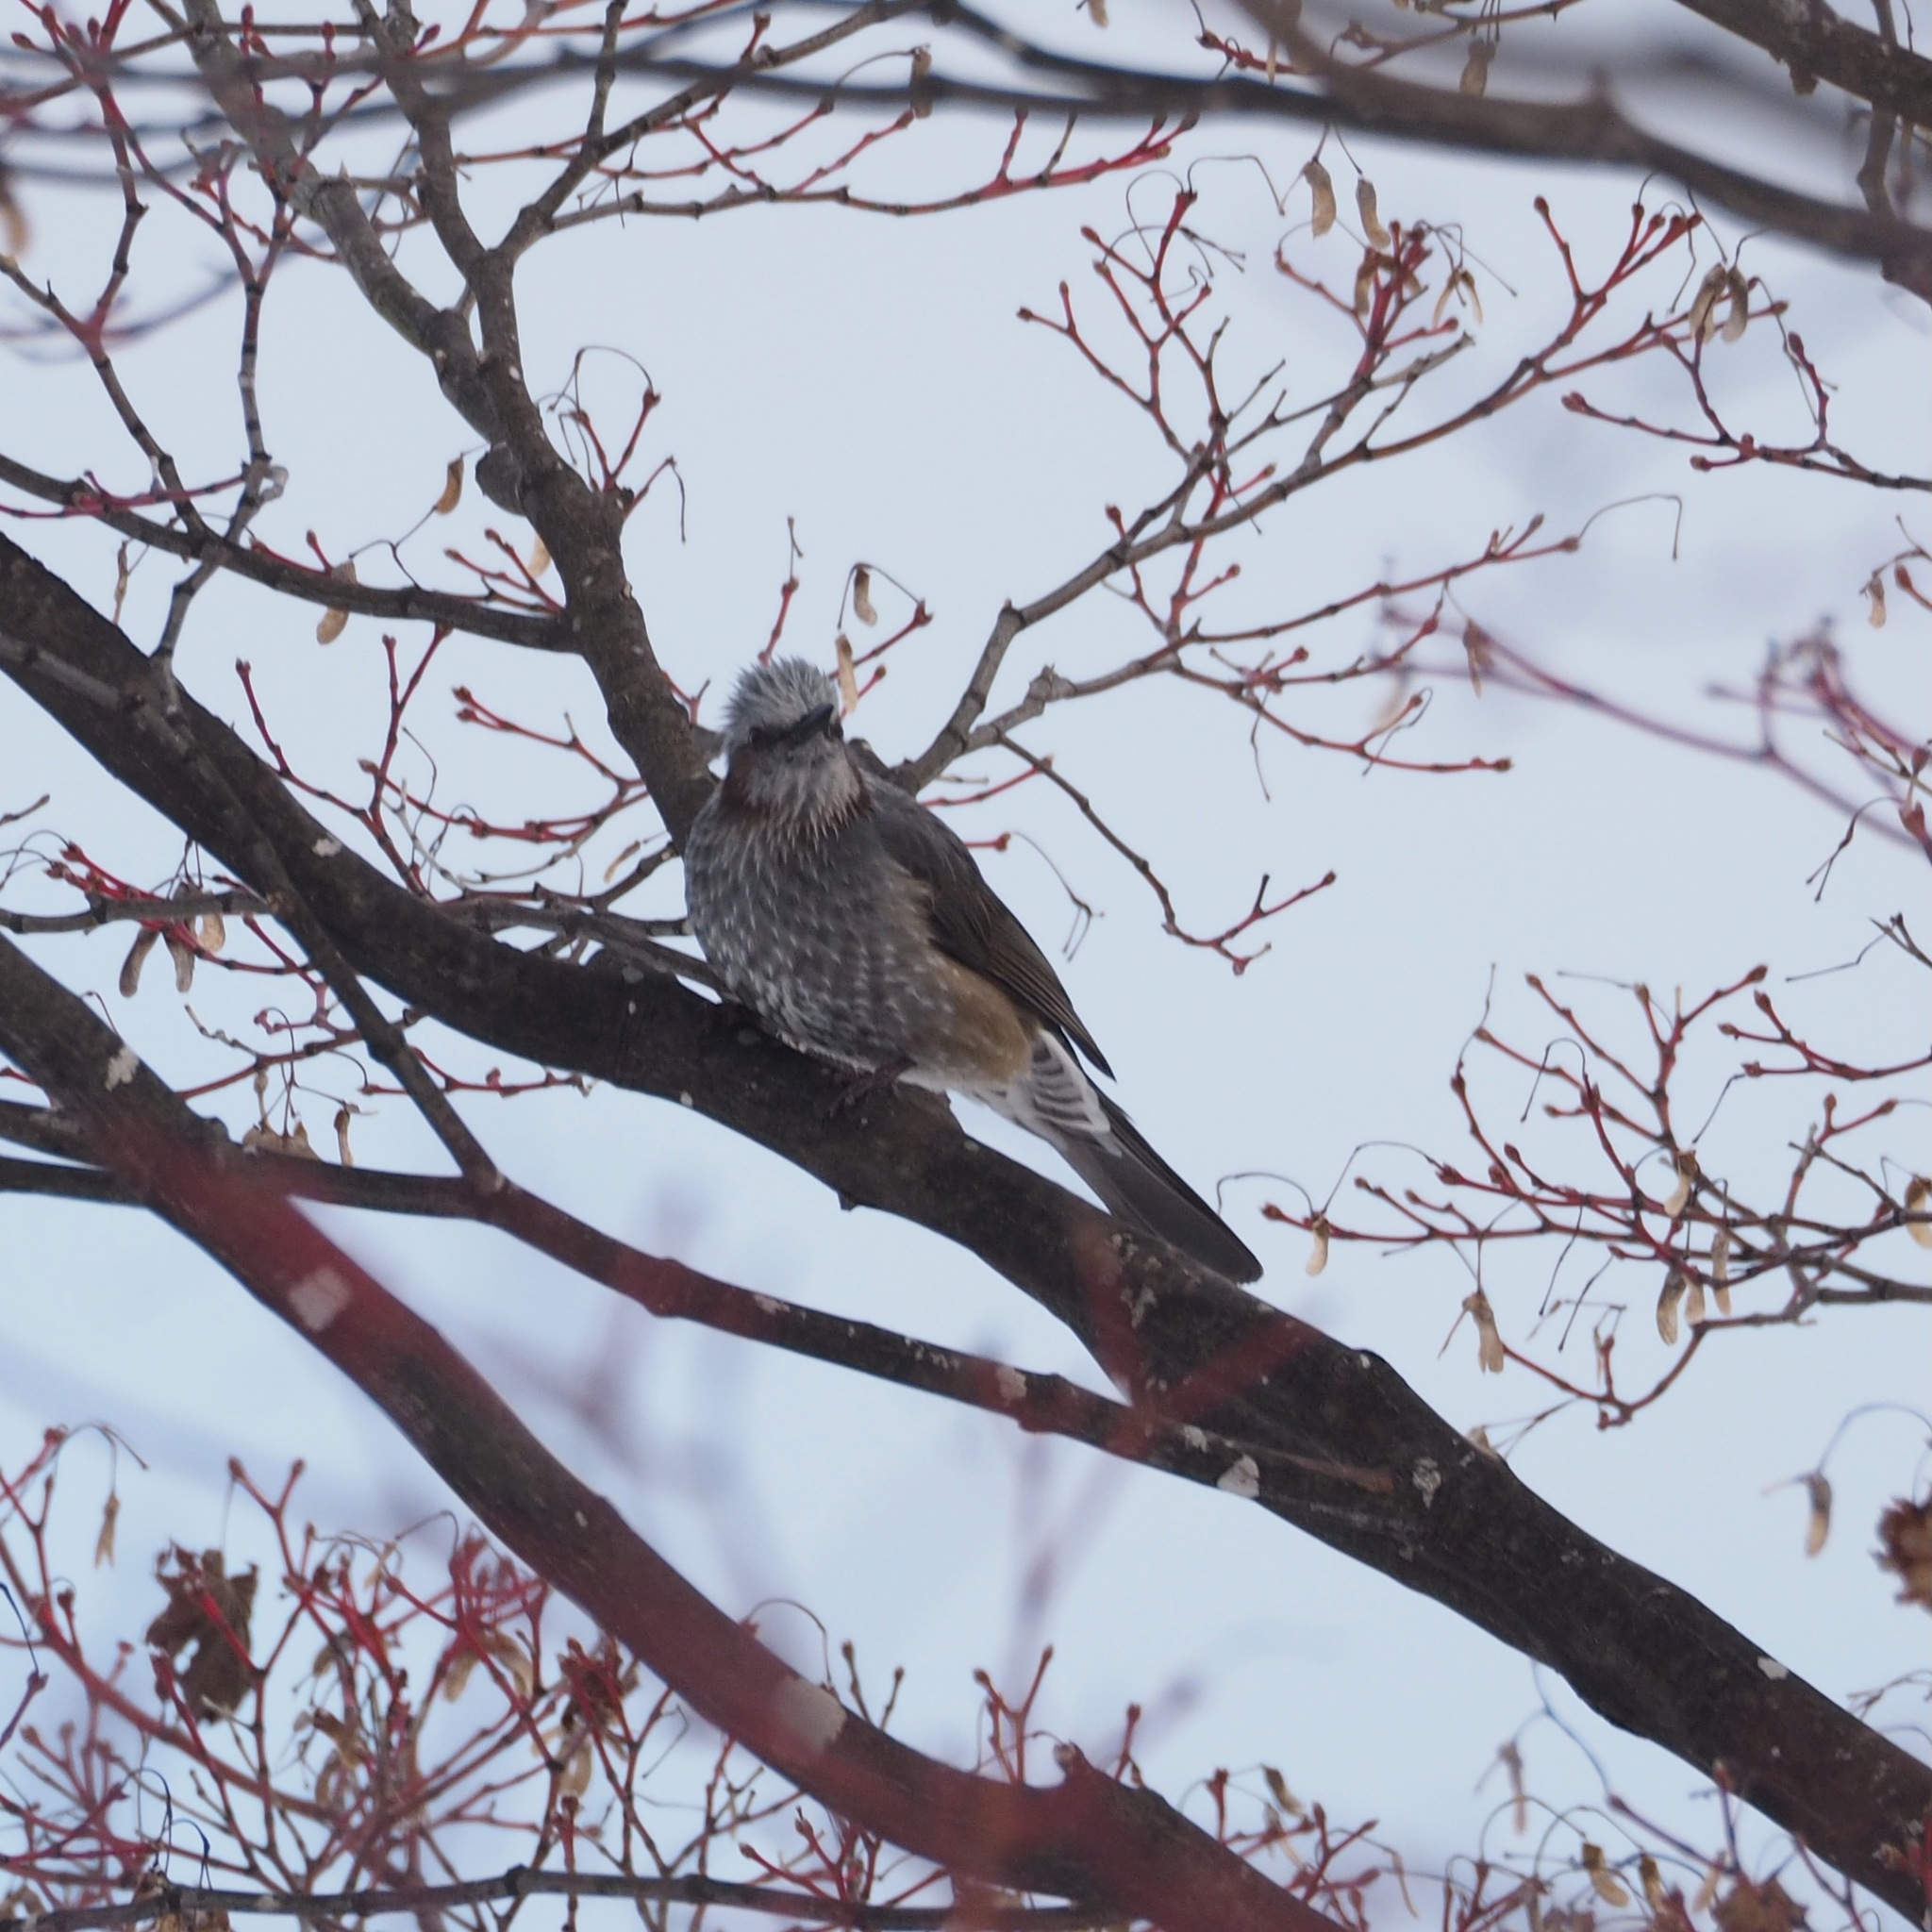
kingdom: Animalia
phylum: Chordata
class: Aves
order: Passeriformes
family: Pycnonotidae
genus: Hypsipetes
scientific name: Hypsipetes amaurotis
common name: Brown-eared bulbul
